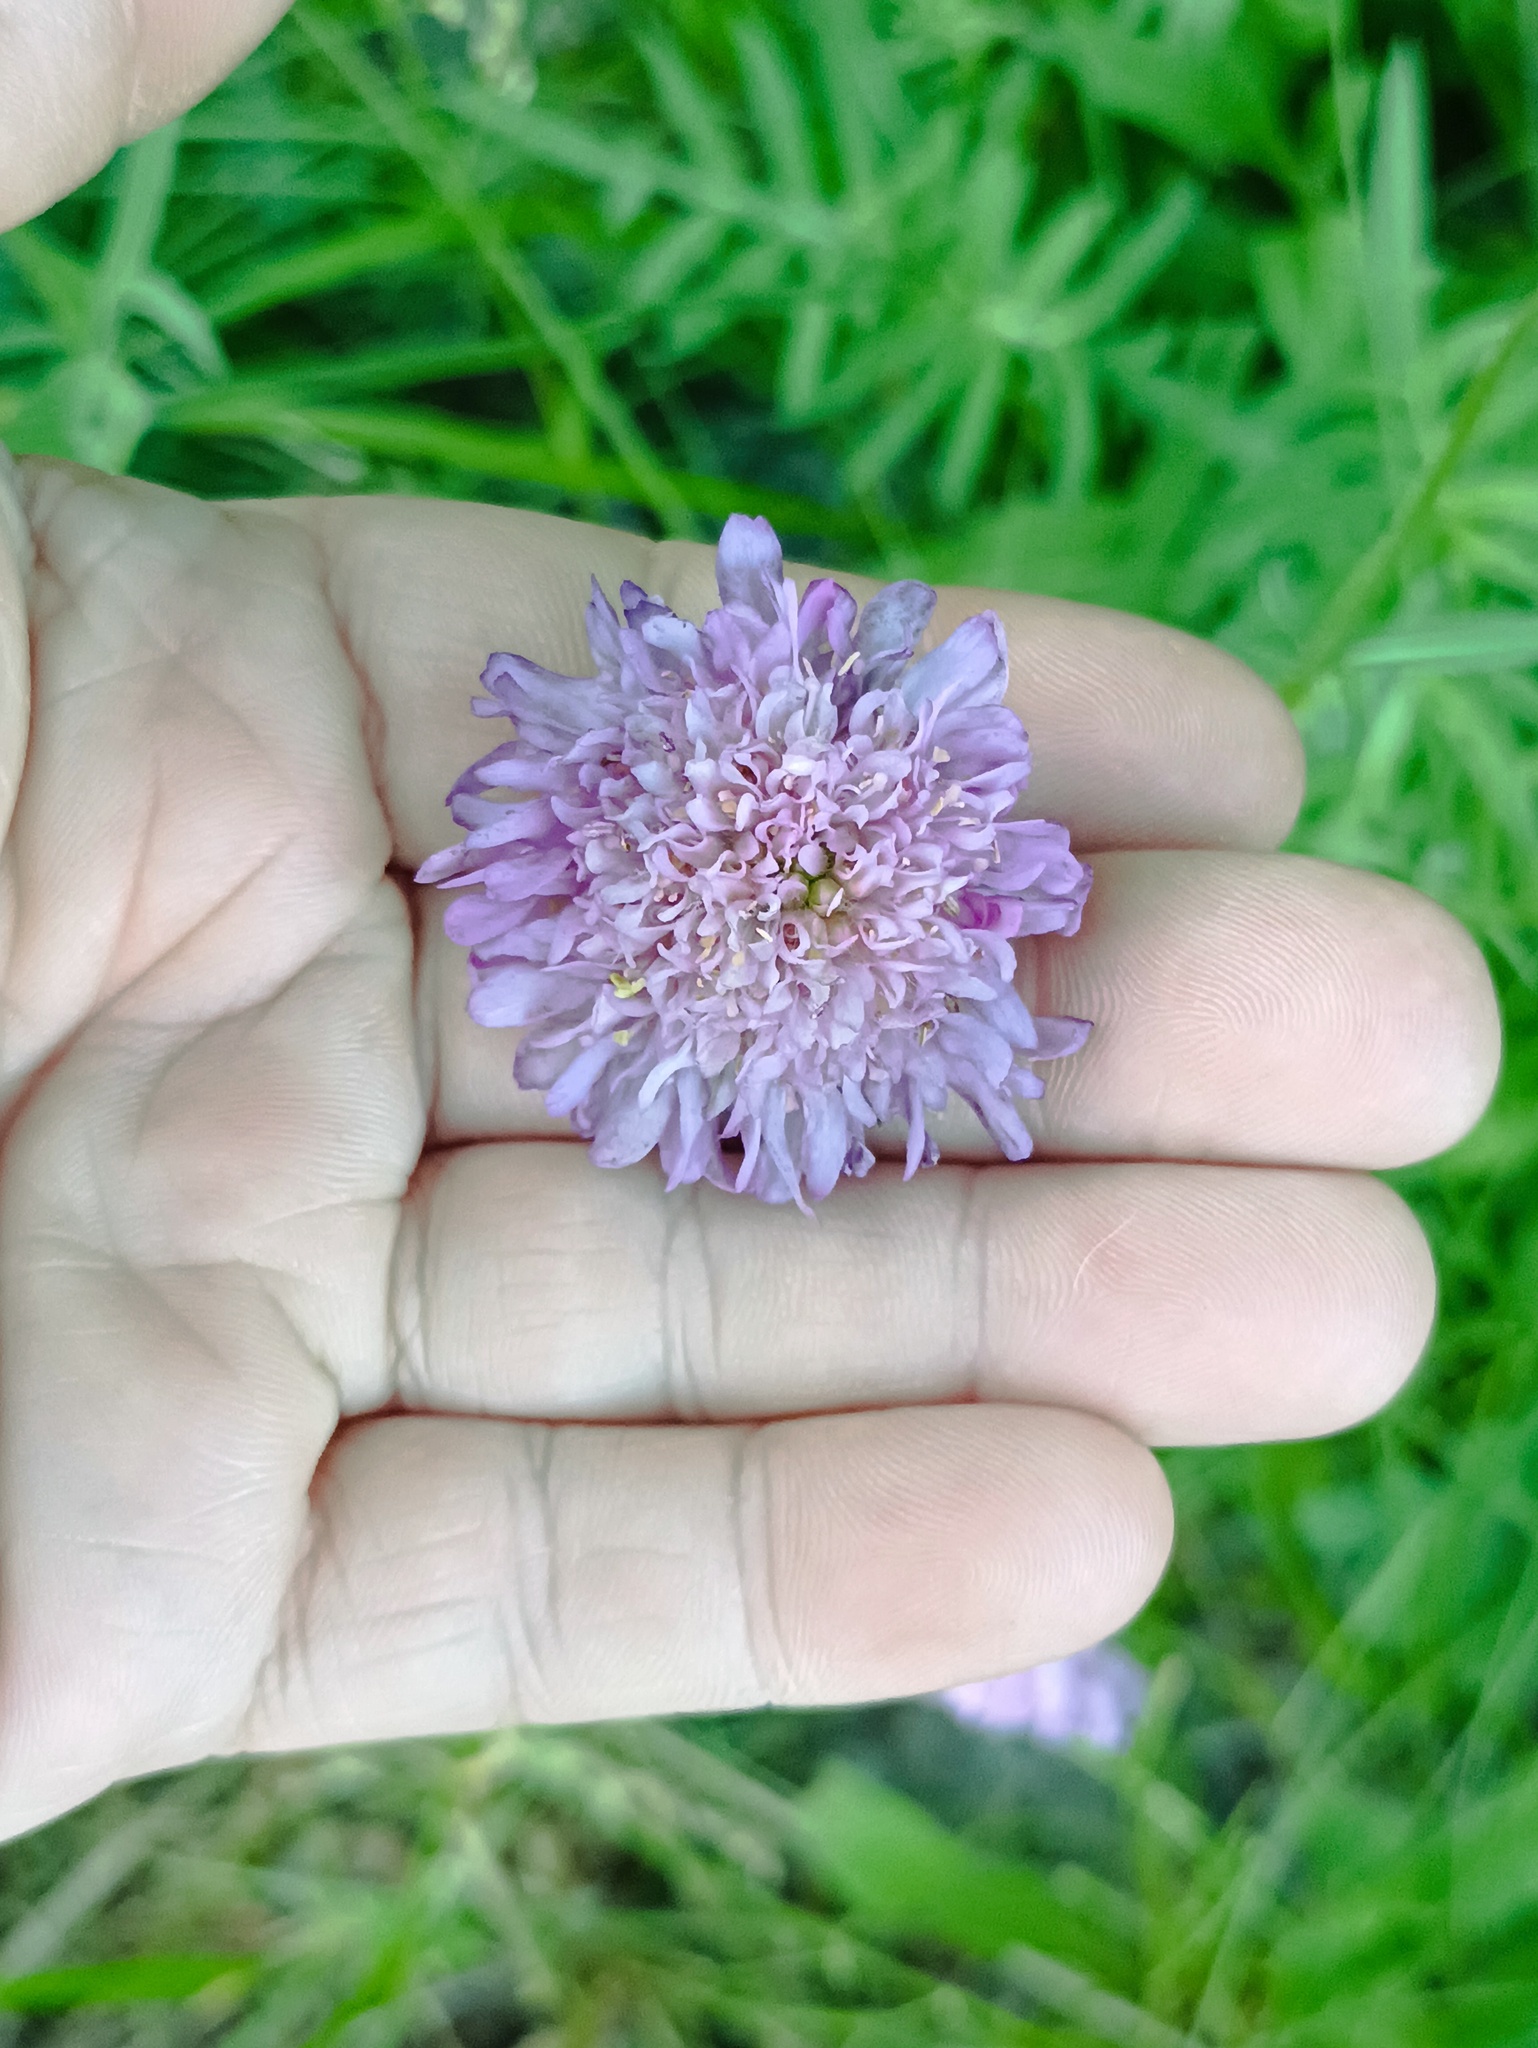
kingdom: Plantae
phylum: Tracheophyta
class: Magnoliopsida
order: Dipsacales
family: Caprifoliaceae
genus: Knautia
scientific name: Knautia arvensis
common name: Field scabiosa
